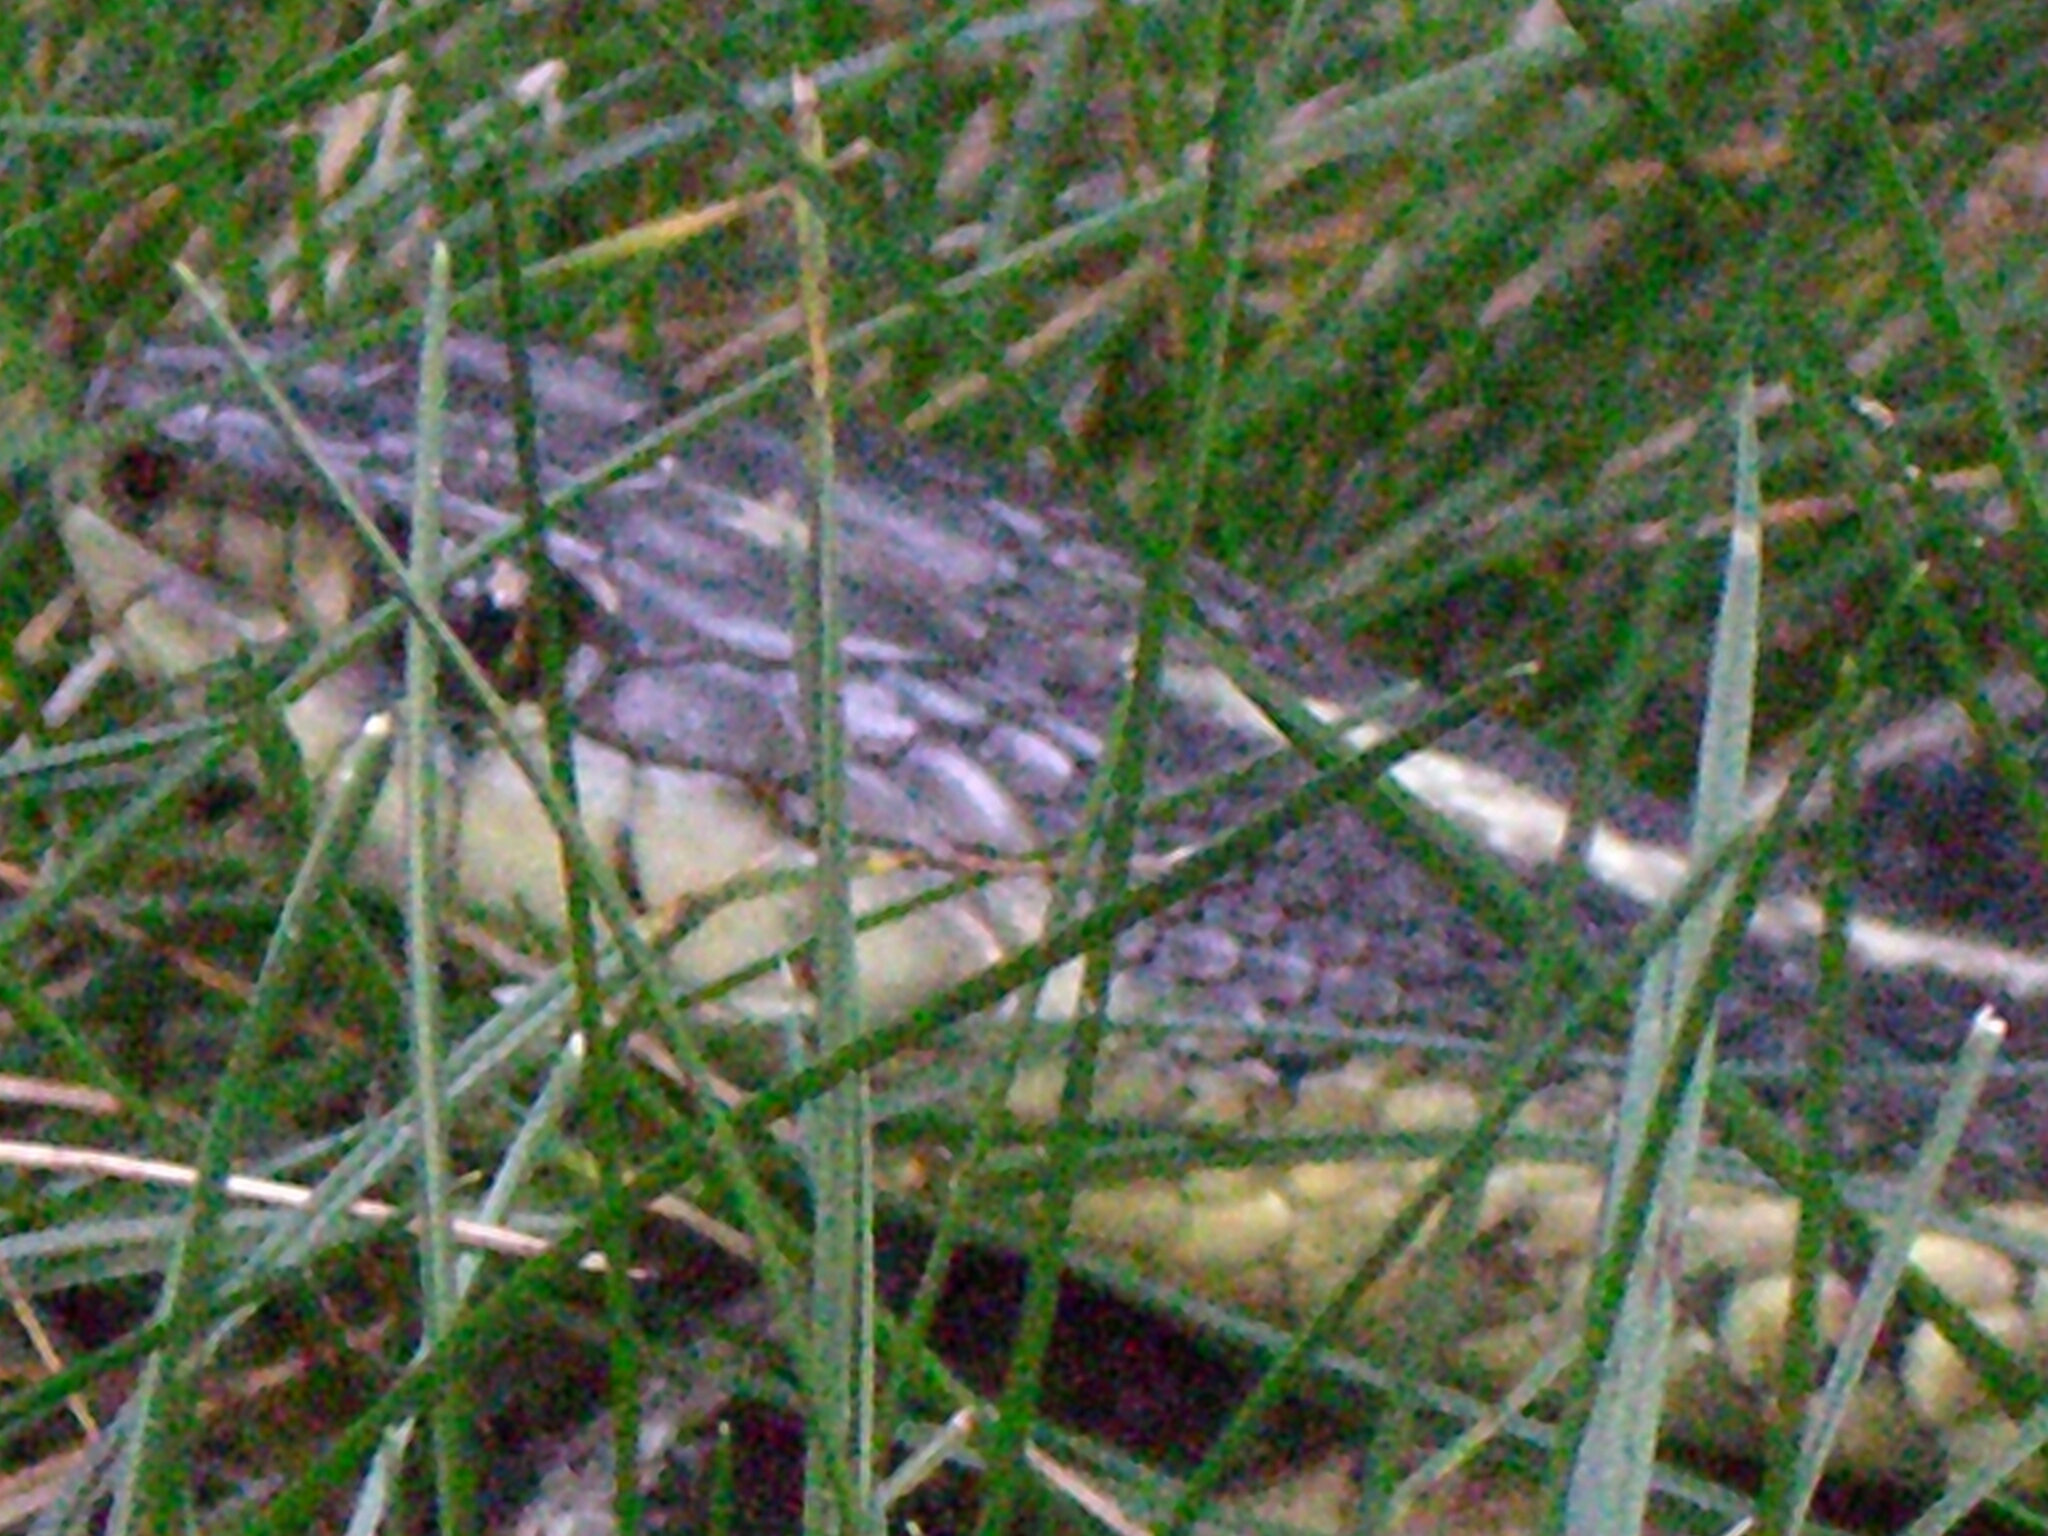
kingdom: Animalia
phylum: Chordata
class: Squamata
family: Colubridae
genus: Thamnophis
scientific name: Thamnophis sirtalis
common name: Common garter snake
